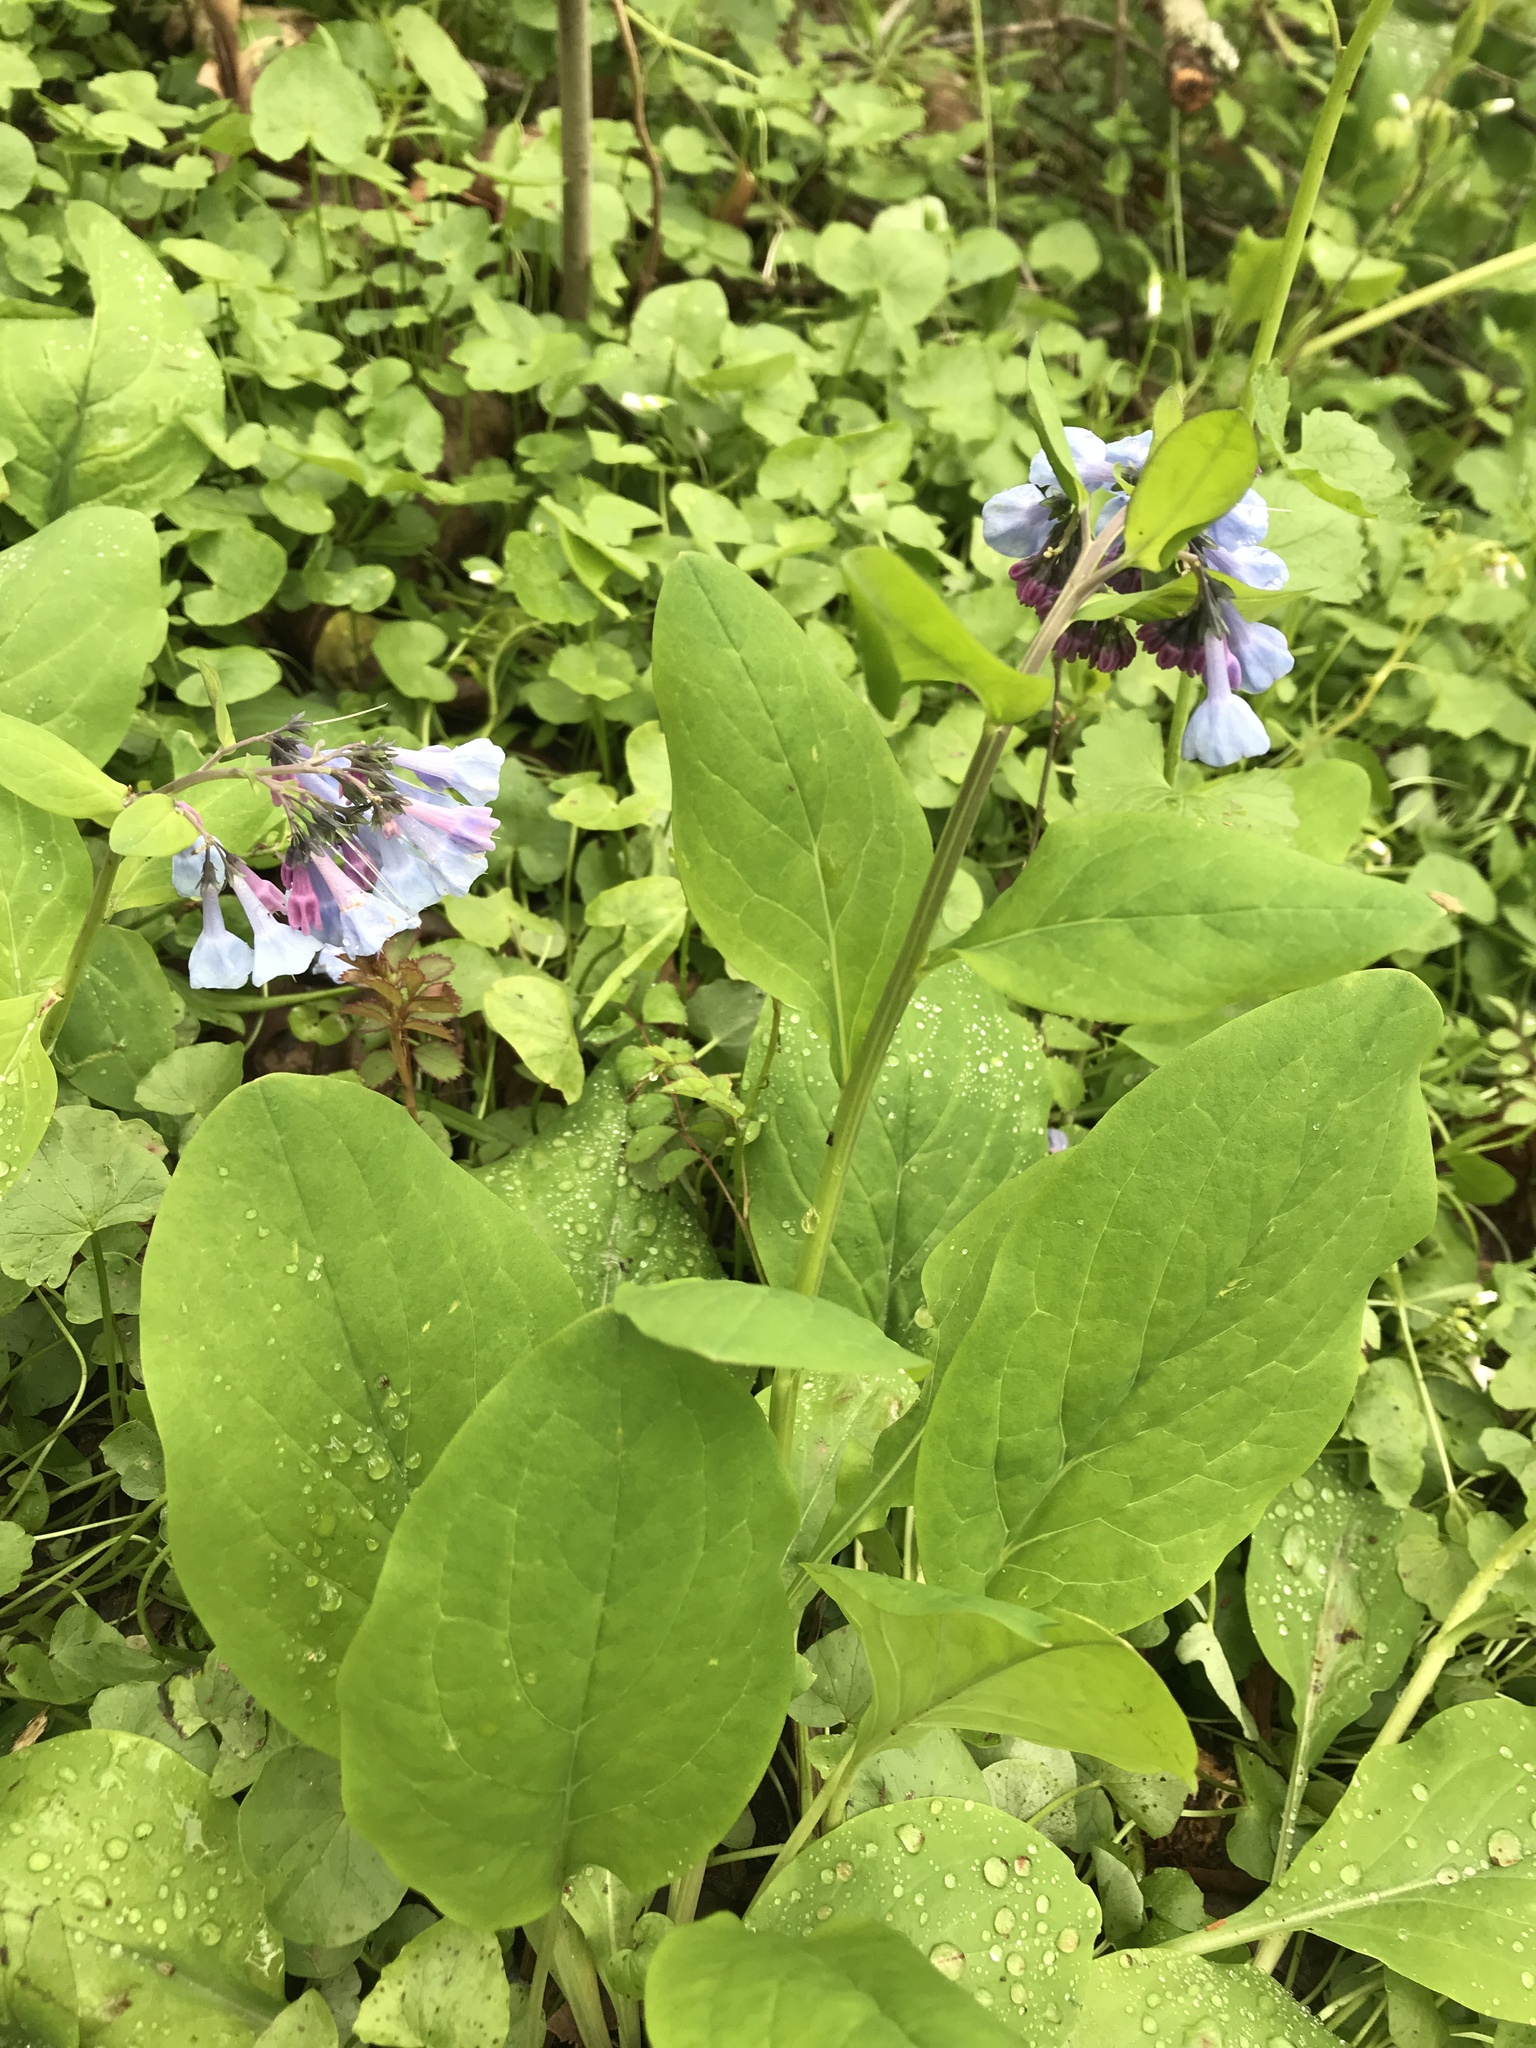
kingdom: Plantae
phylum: Tracheophyta
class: Magnoliopsida
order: Boraginales
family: Boraginaceae
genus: Mertensia
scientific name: Mertensia virginica
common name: Virginia bluebells
